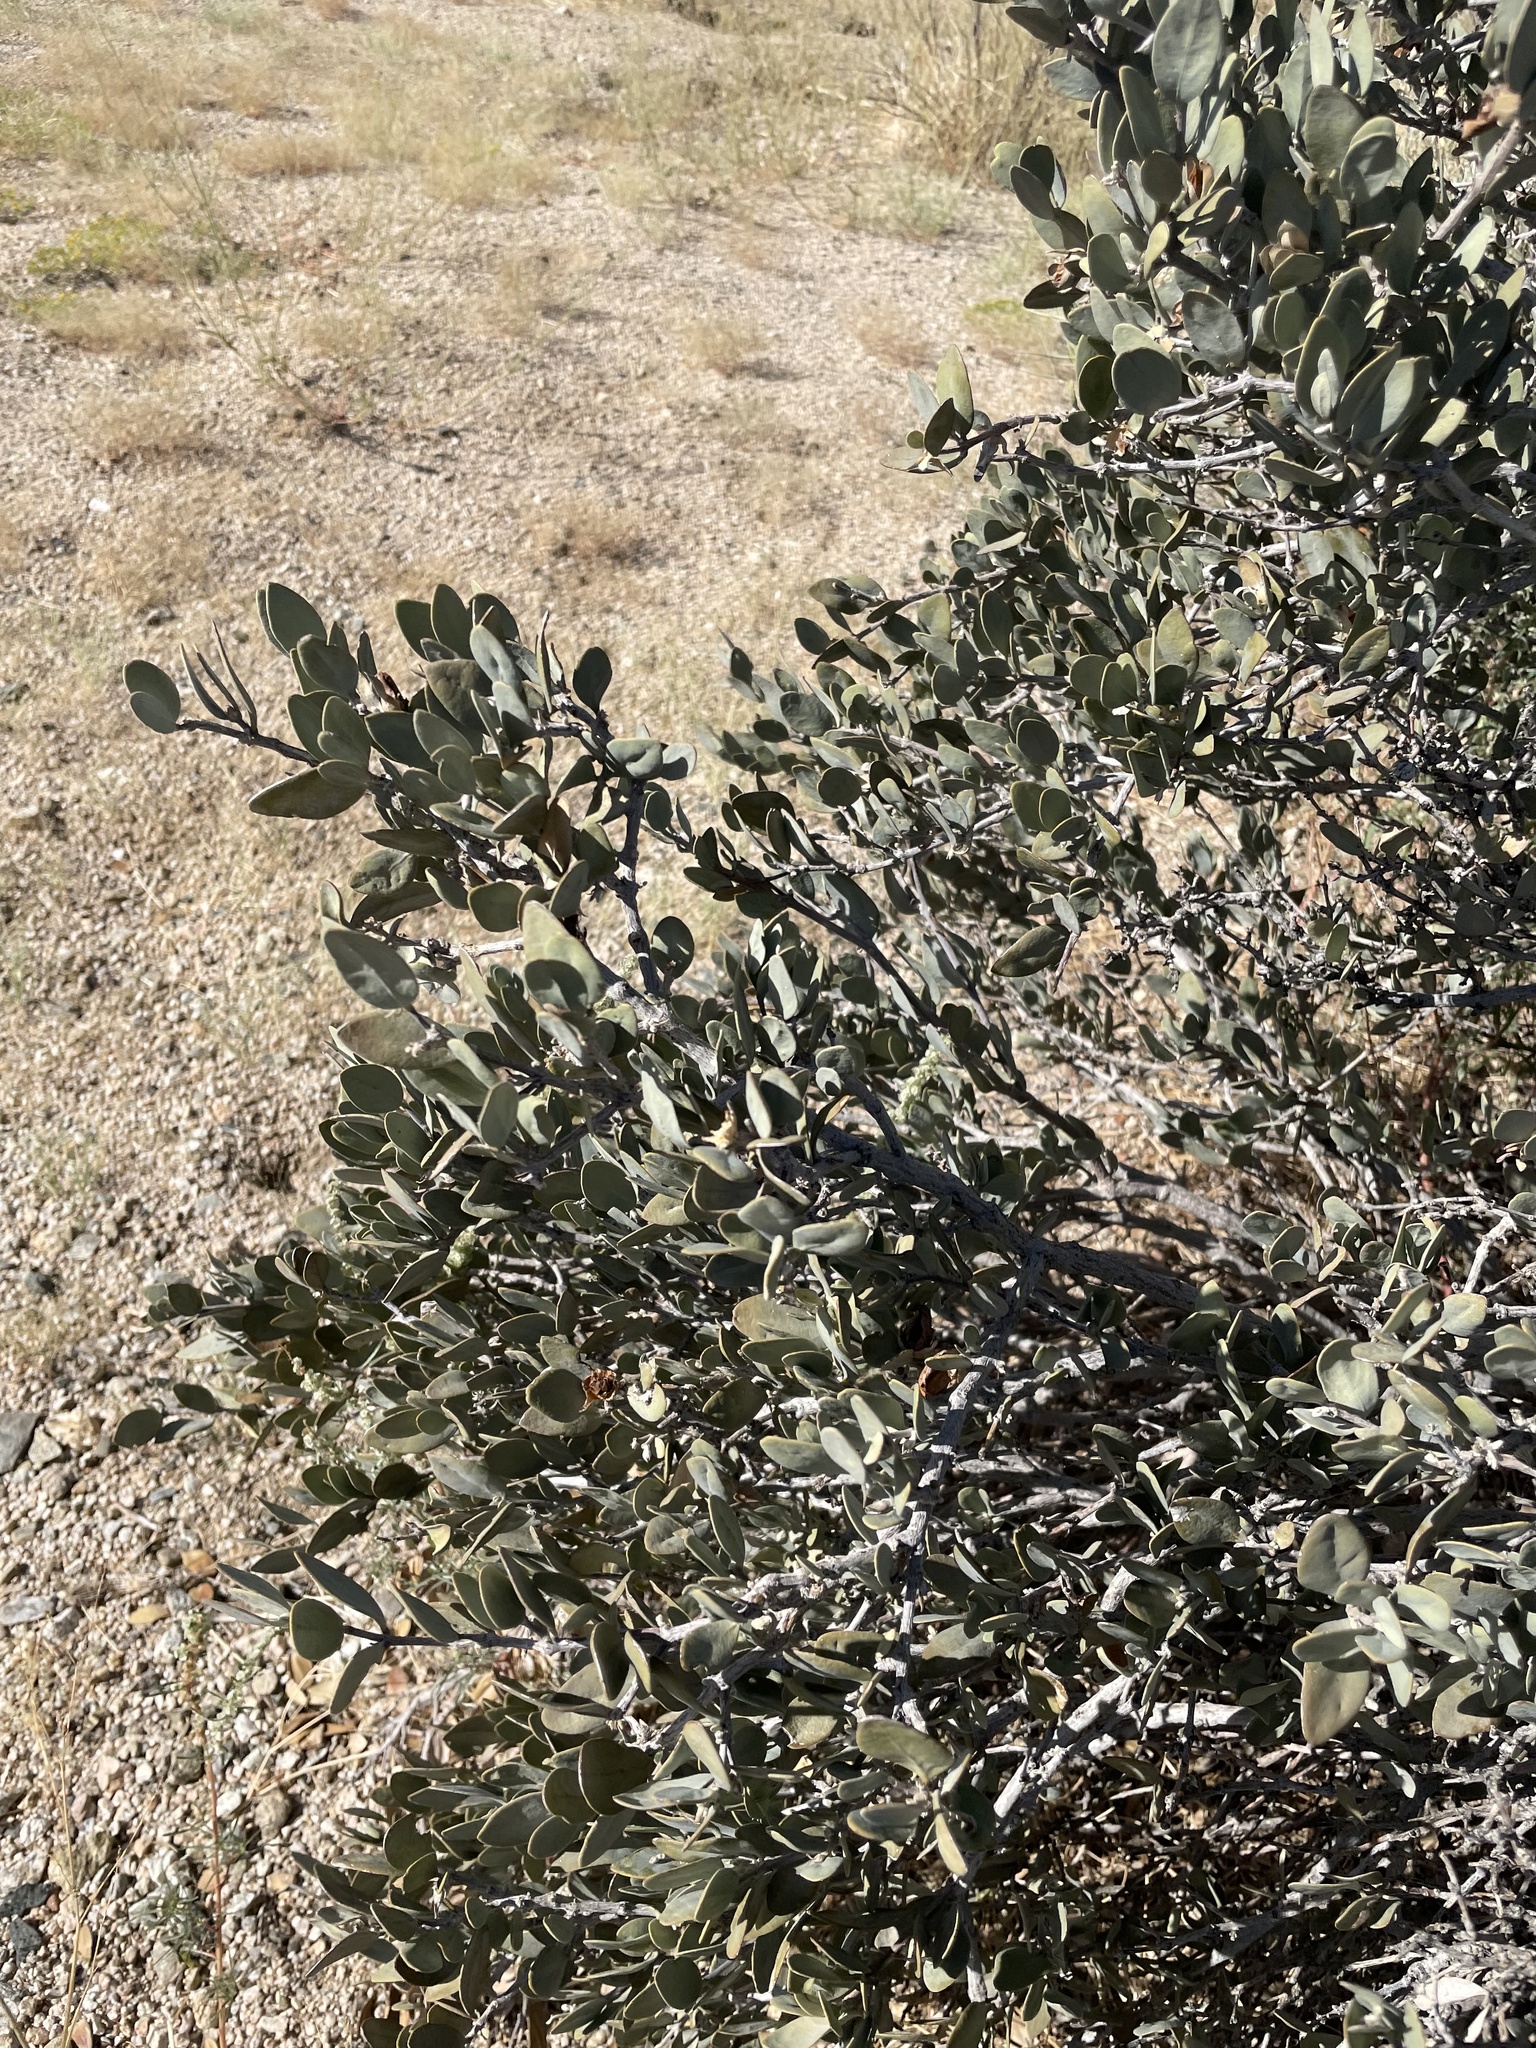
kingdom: Plantae
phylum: Tracheophyta
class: Magnoliopsida
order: Caryophyllales
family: Simmondsiaceae
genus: Simmondsia
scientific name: Simmondsia chinensis
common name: Jojoba
